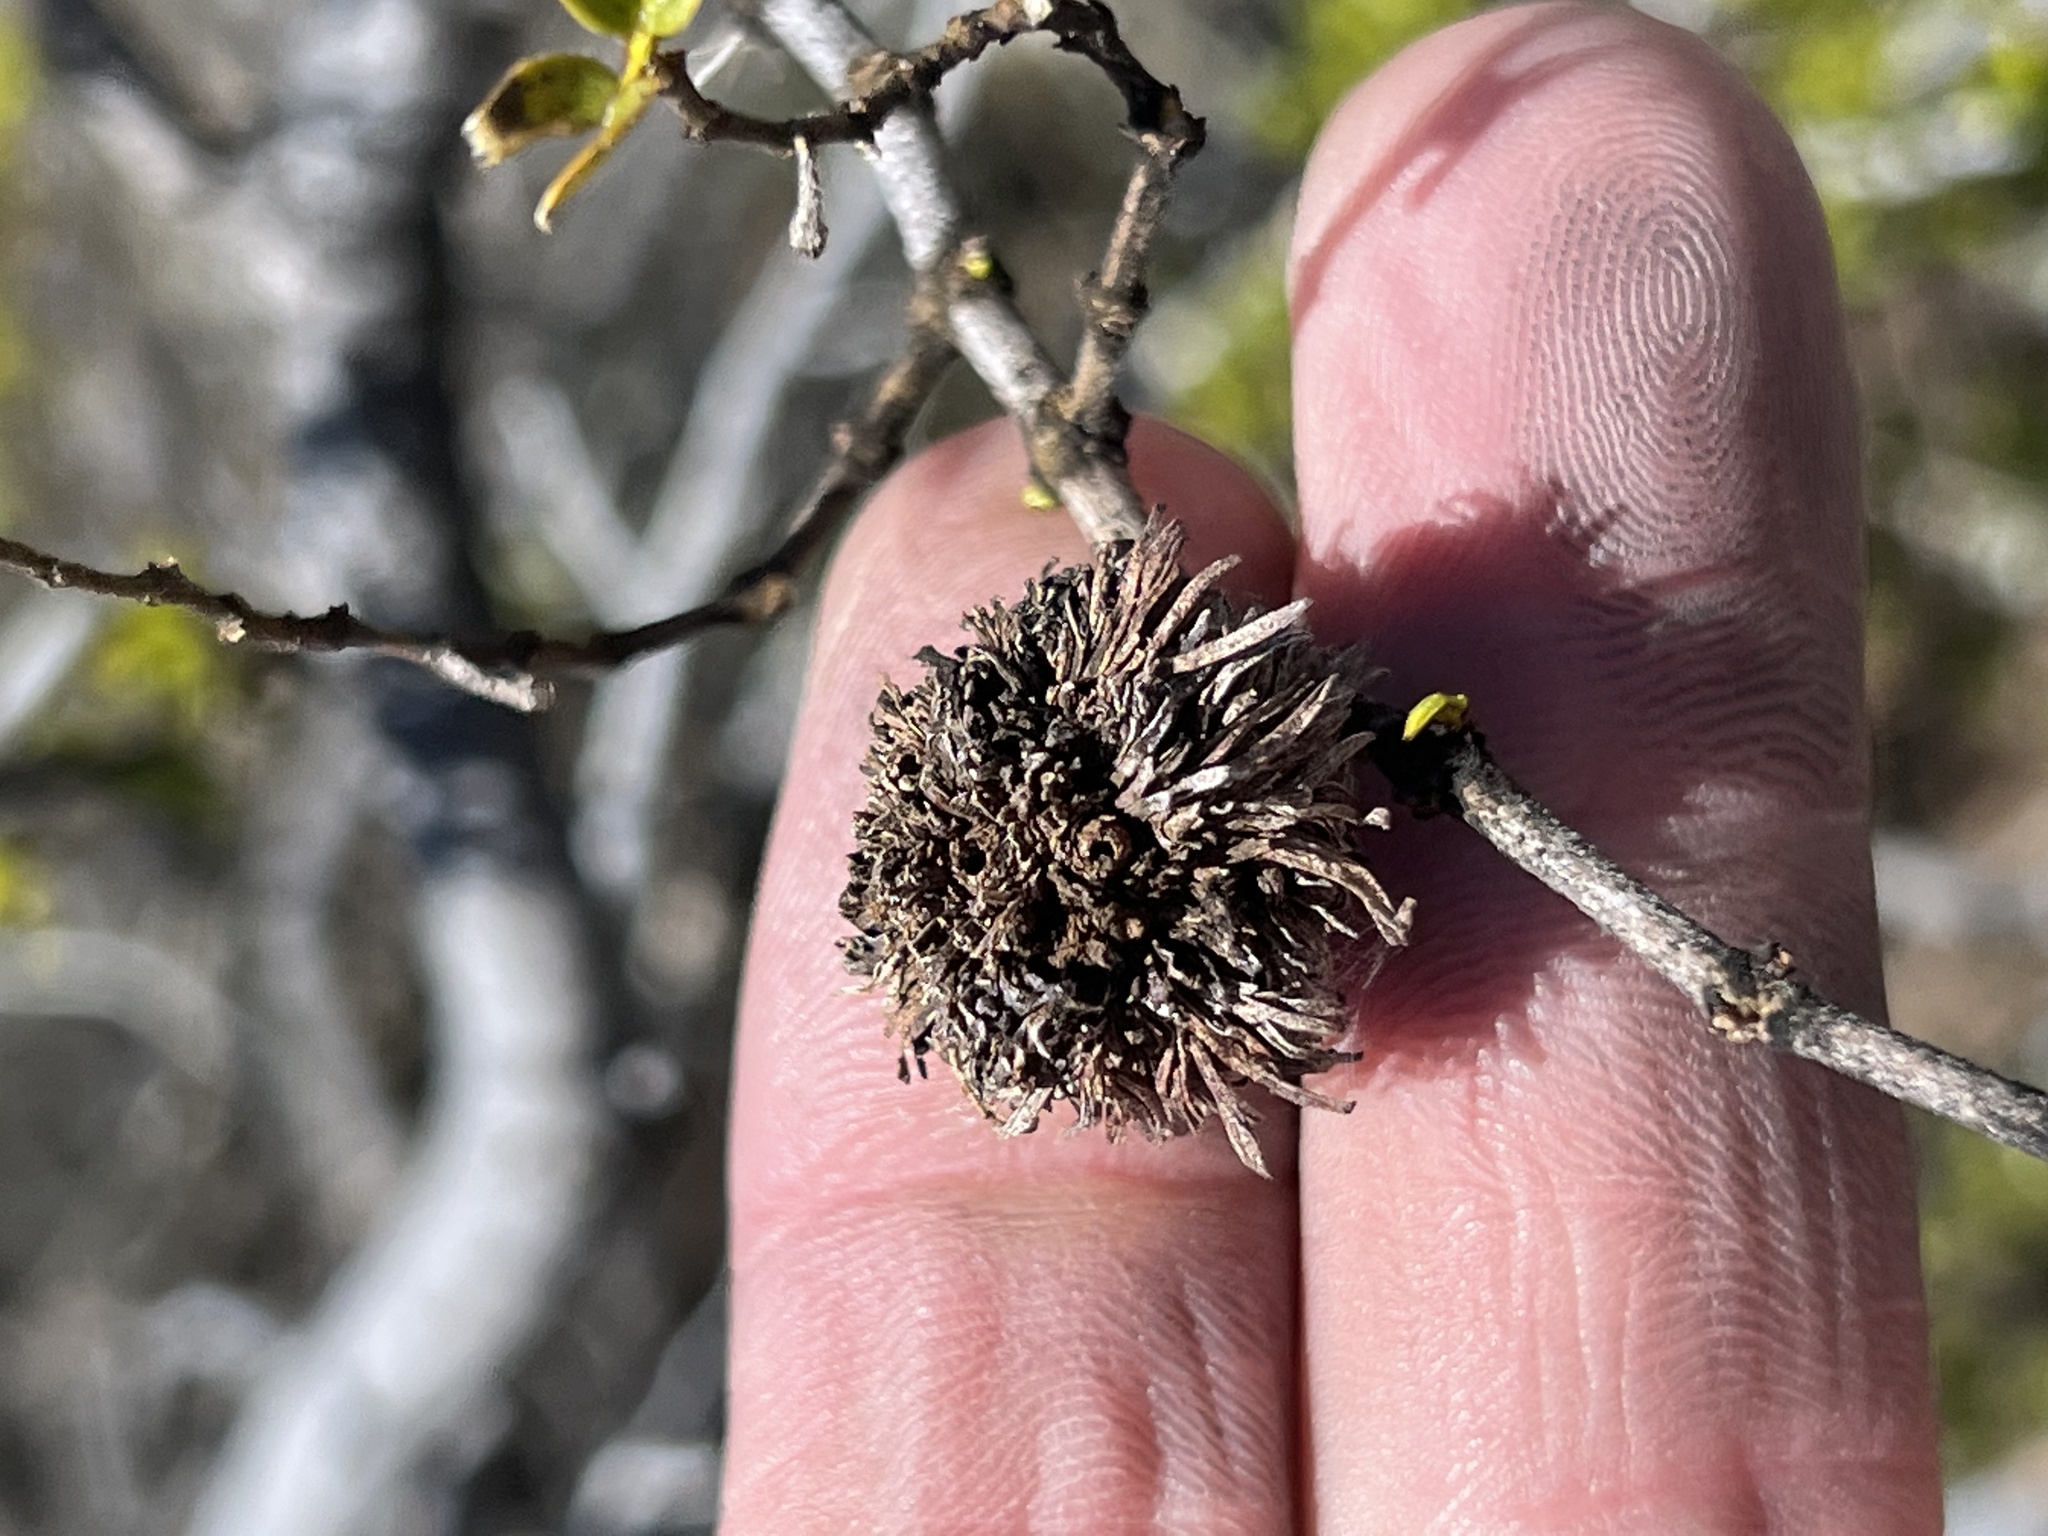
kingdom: Animalia
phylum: Arthropoda
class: Insecta
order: Diptera
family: Cecidomyiidae
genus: Asphondylia
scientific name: Asphondylia auripila
